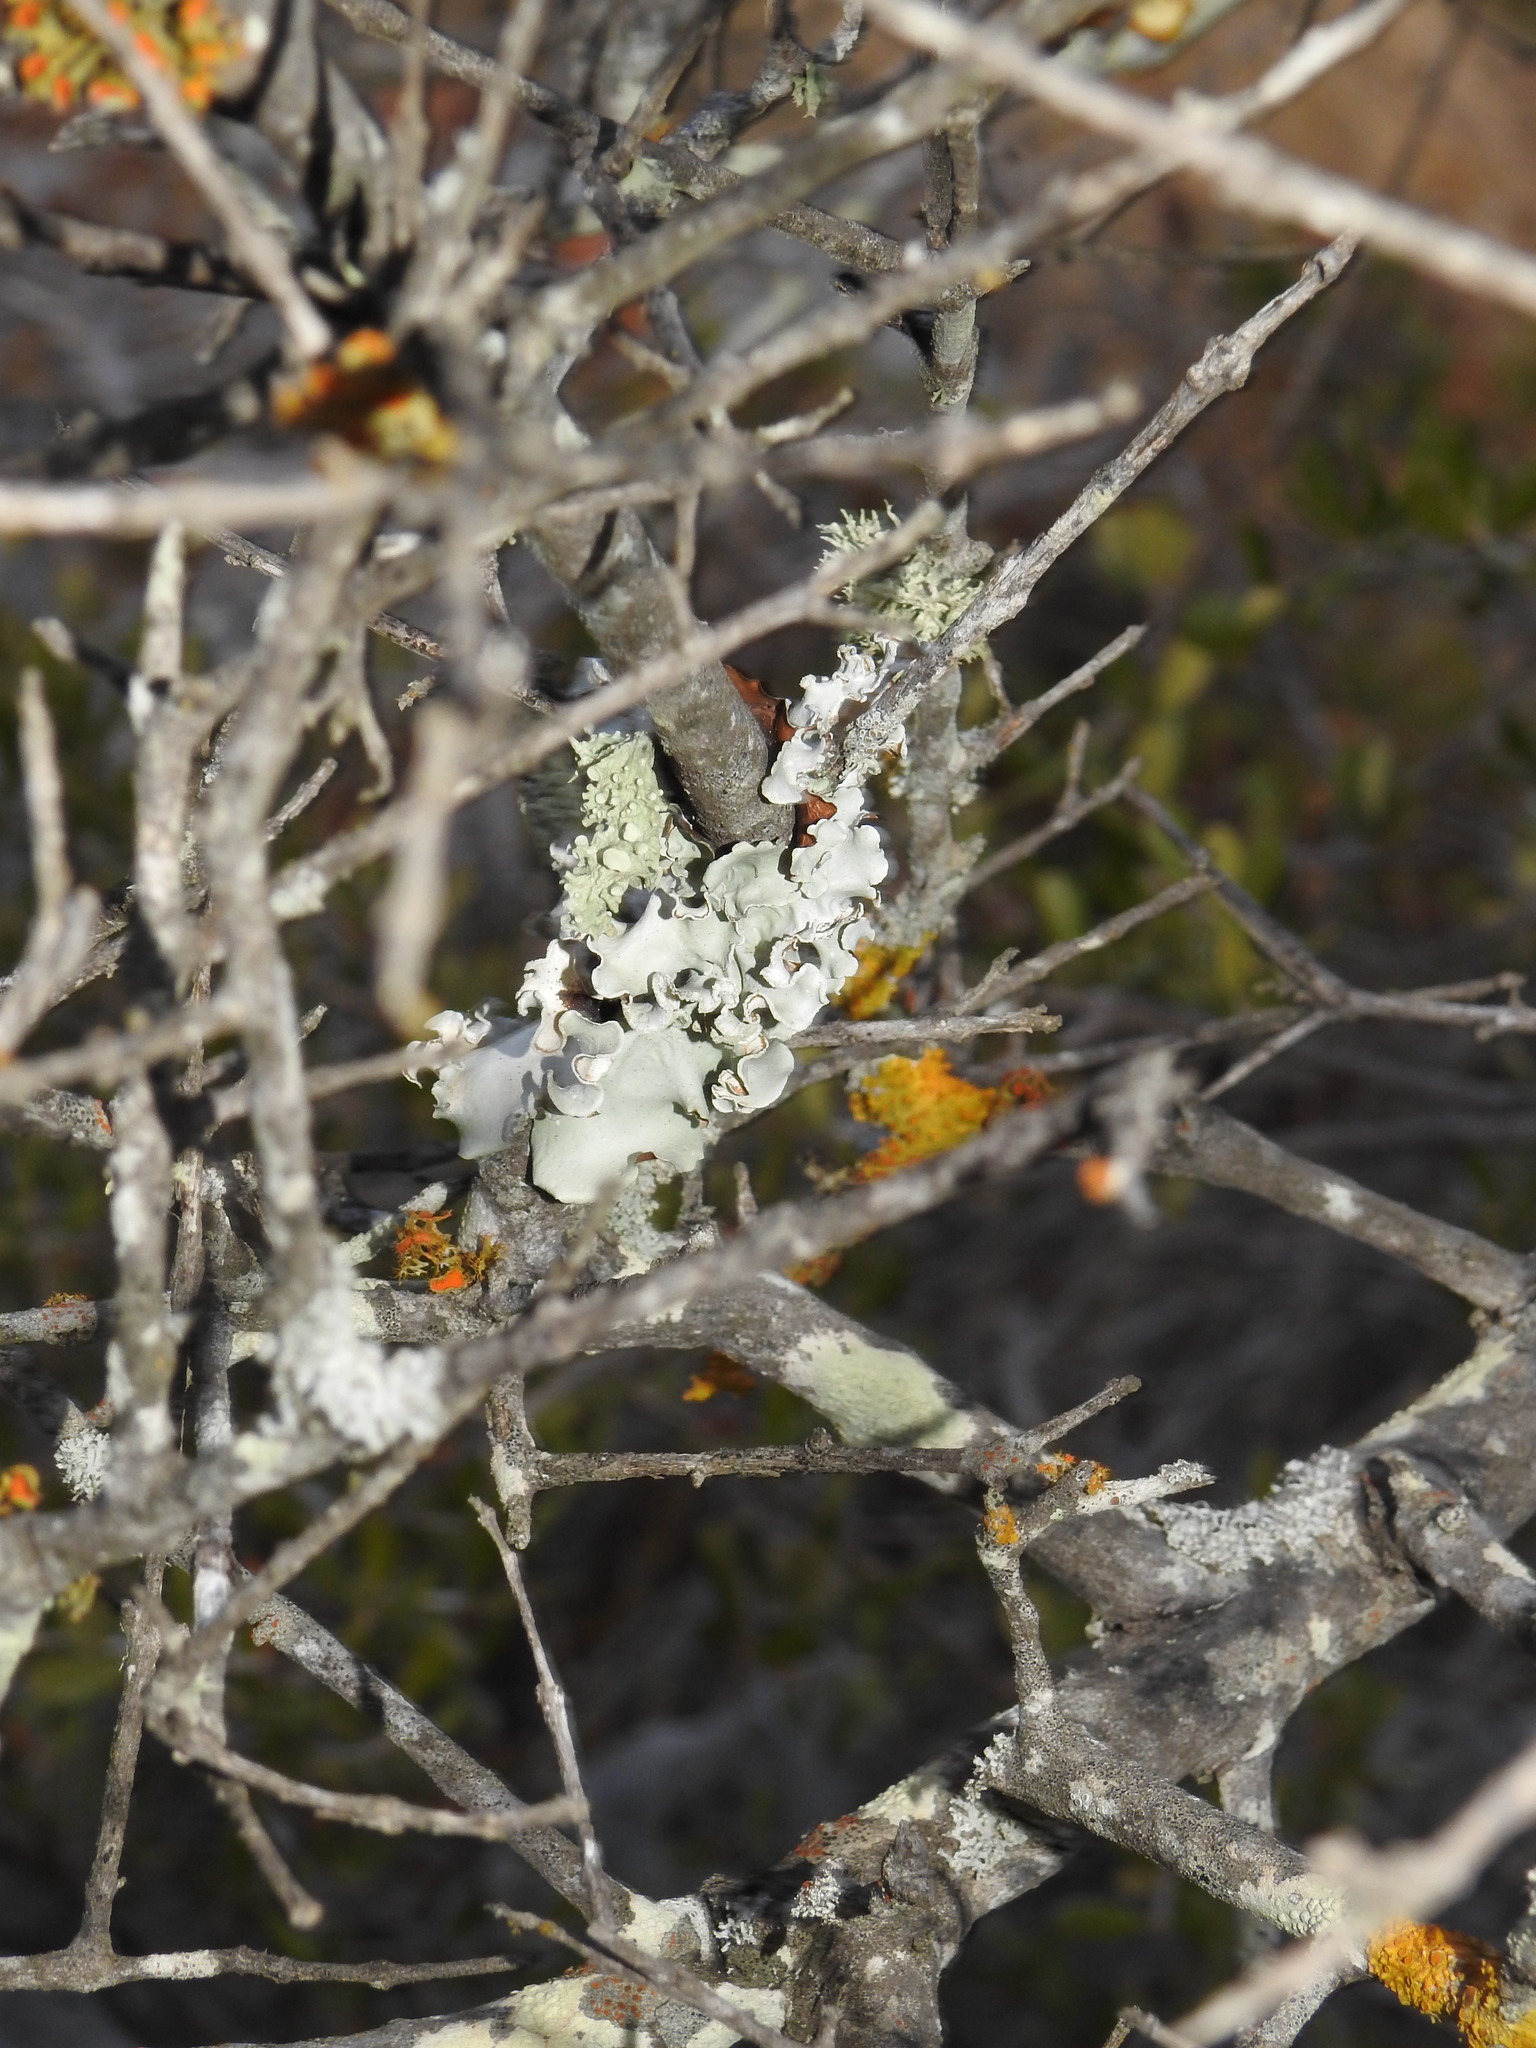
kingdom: Fungi
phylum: Ascomycota
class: Lecanoromycetes
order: Lecanorales
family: Parmeliaceae
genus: Parmotrema
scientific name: Parmotrema hypoleucinum
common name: Lacy powdered-ruffle
